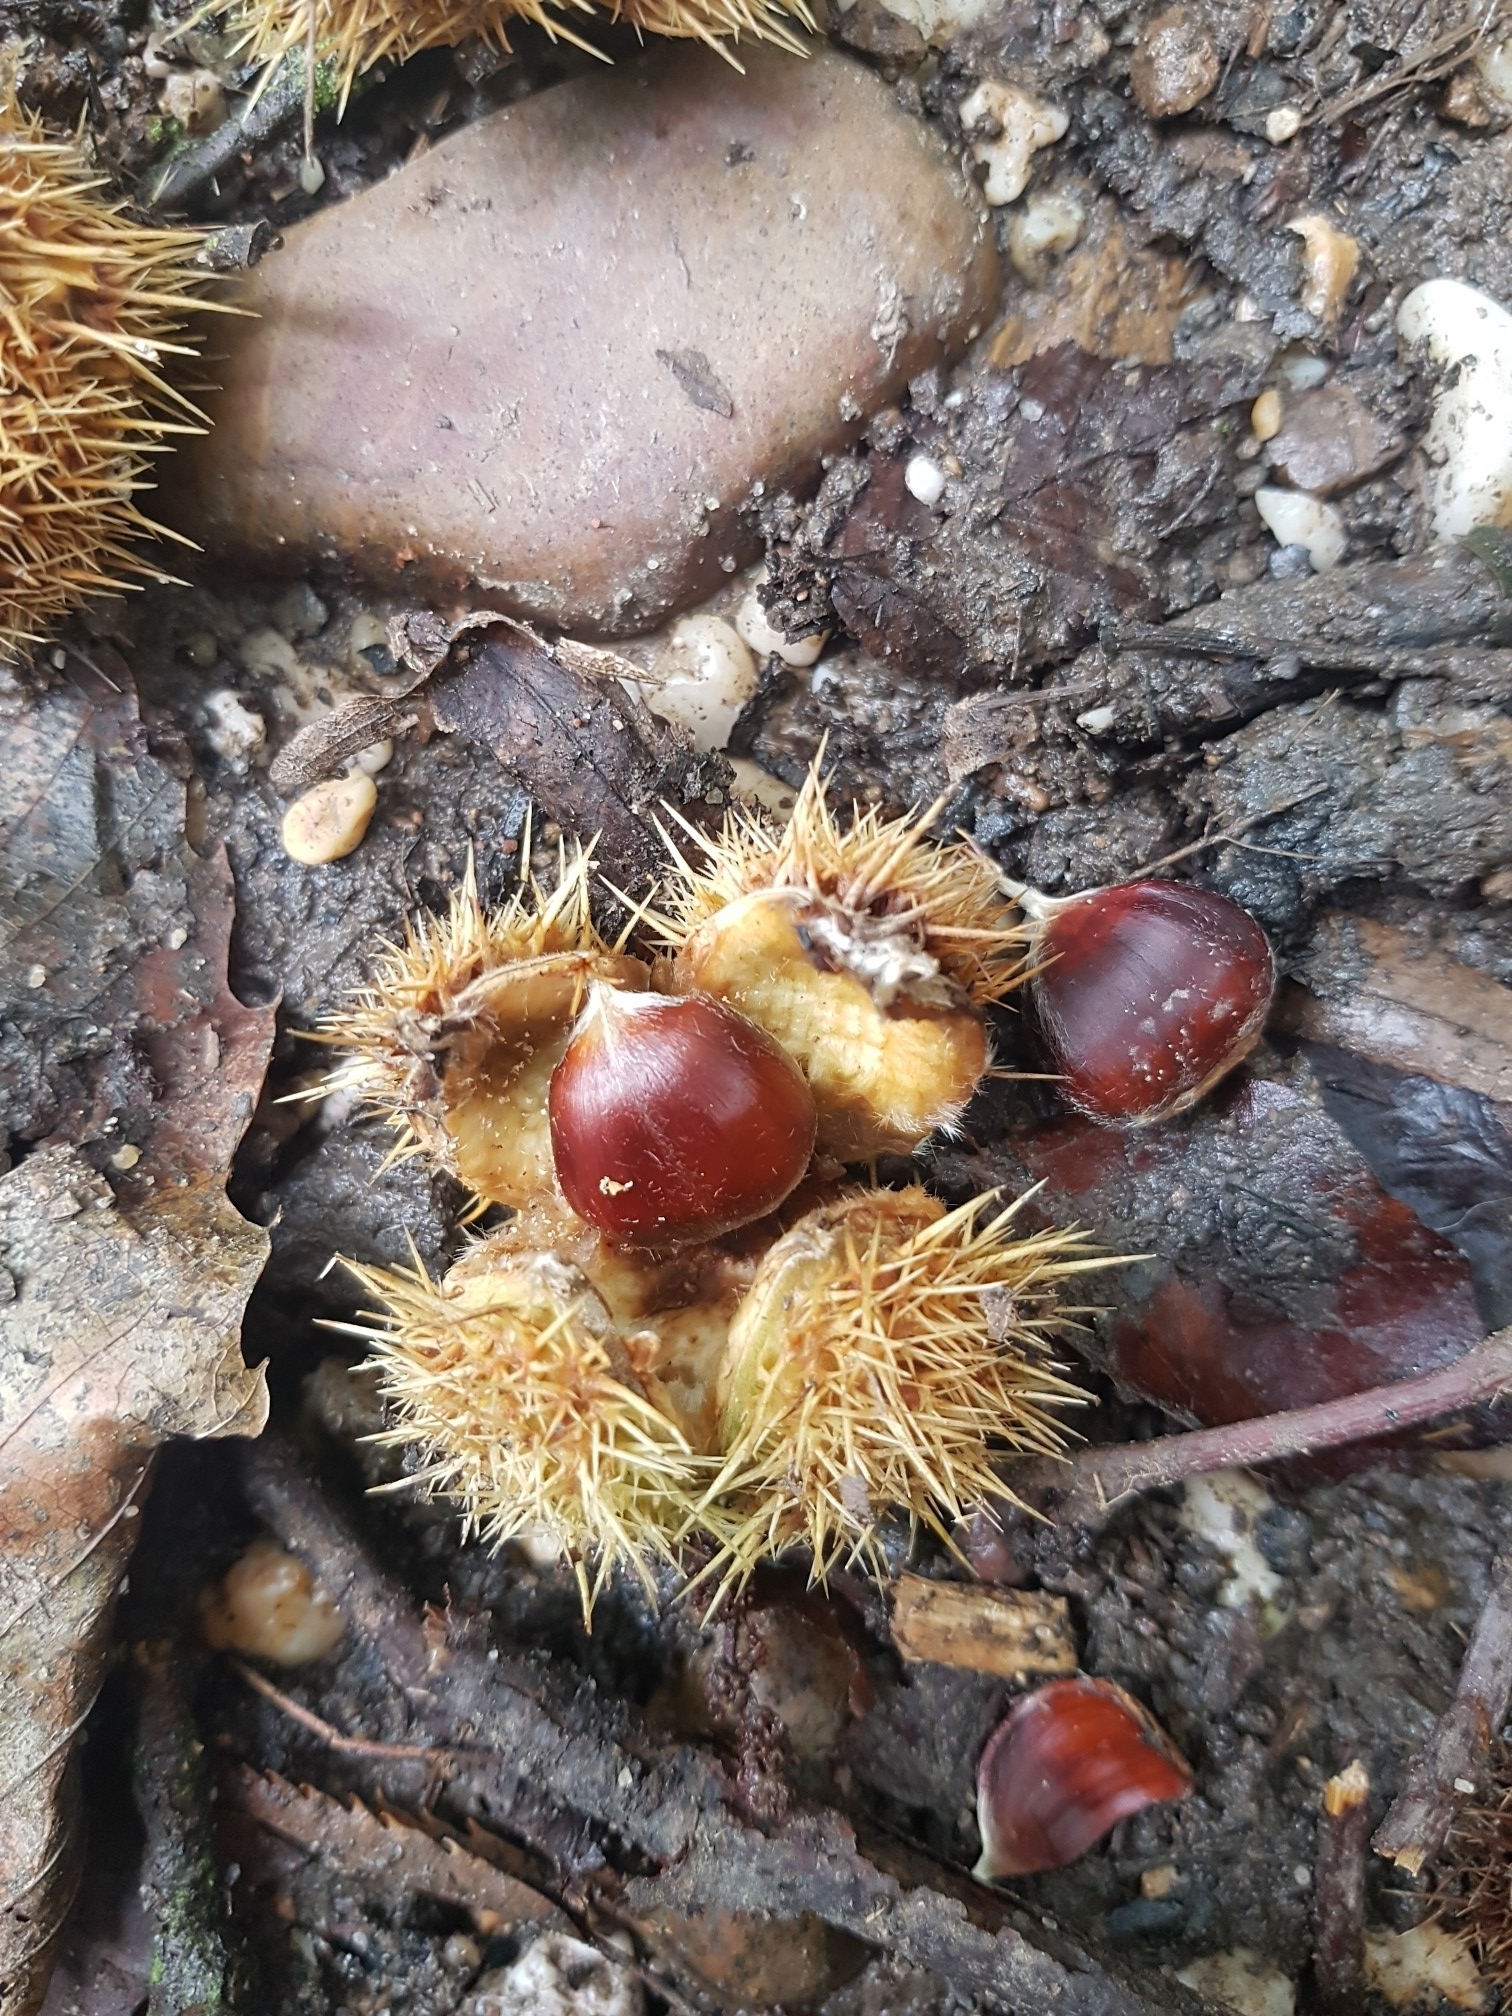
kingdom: Plantae
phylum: Tracheophyta
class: Magnoliopsida
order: Fagales
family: Fagaceae
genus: Castanea
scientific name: Castanea sativa
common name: Sweet chestnut
